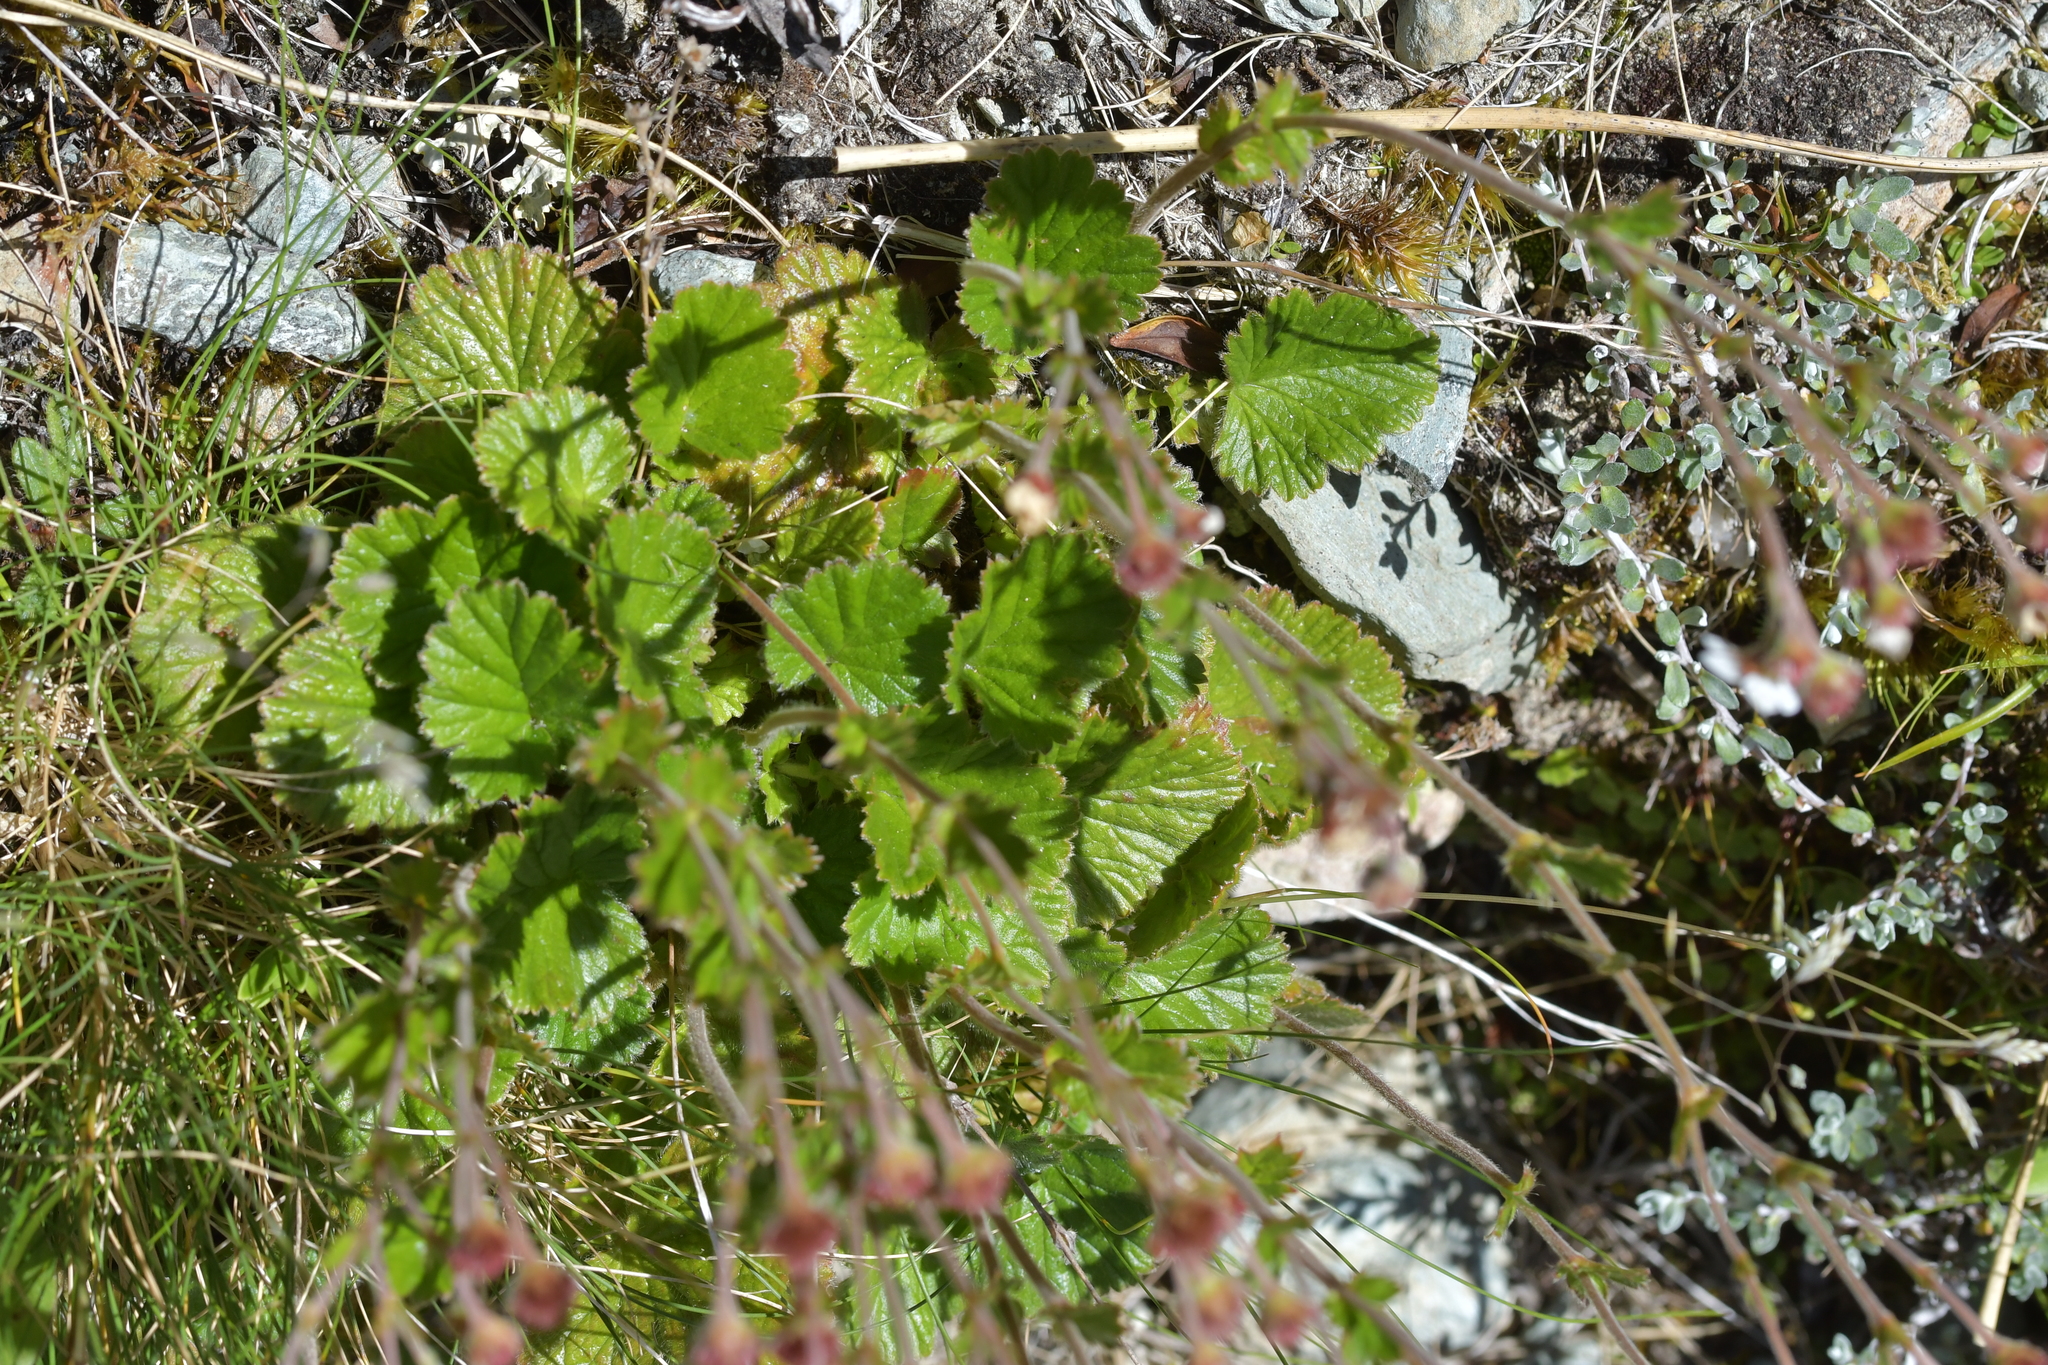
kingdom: Plantae
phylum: Tracheophyta
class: Magnoliopsida
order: Rosales
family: Rosaceae
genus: Geum
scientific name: Geum cockaynei
